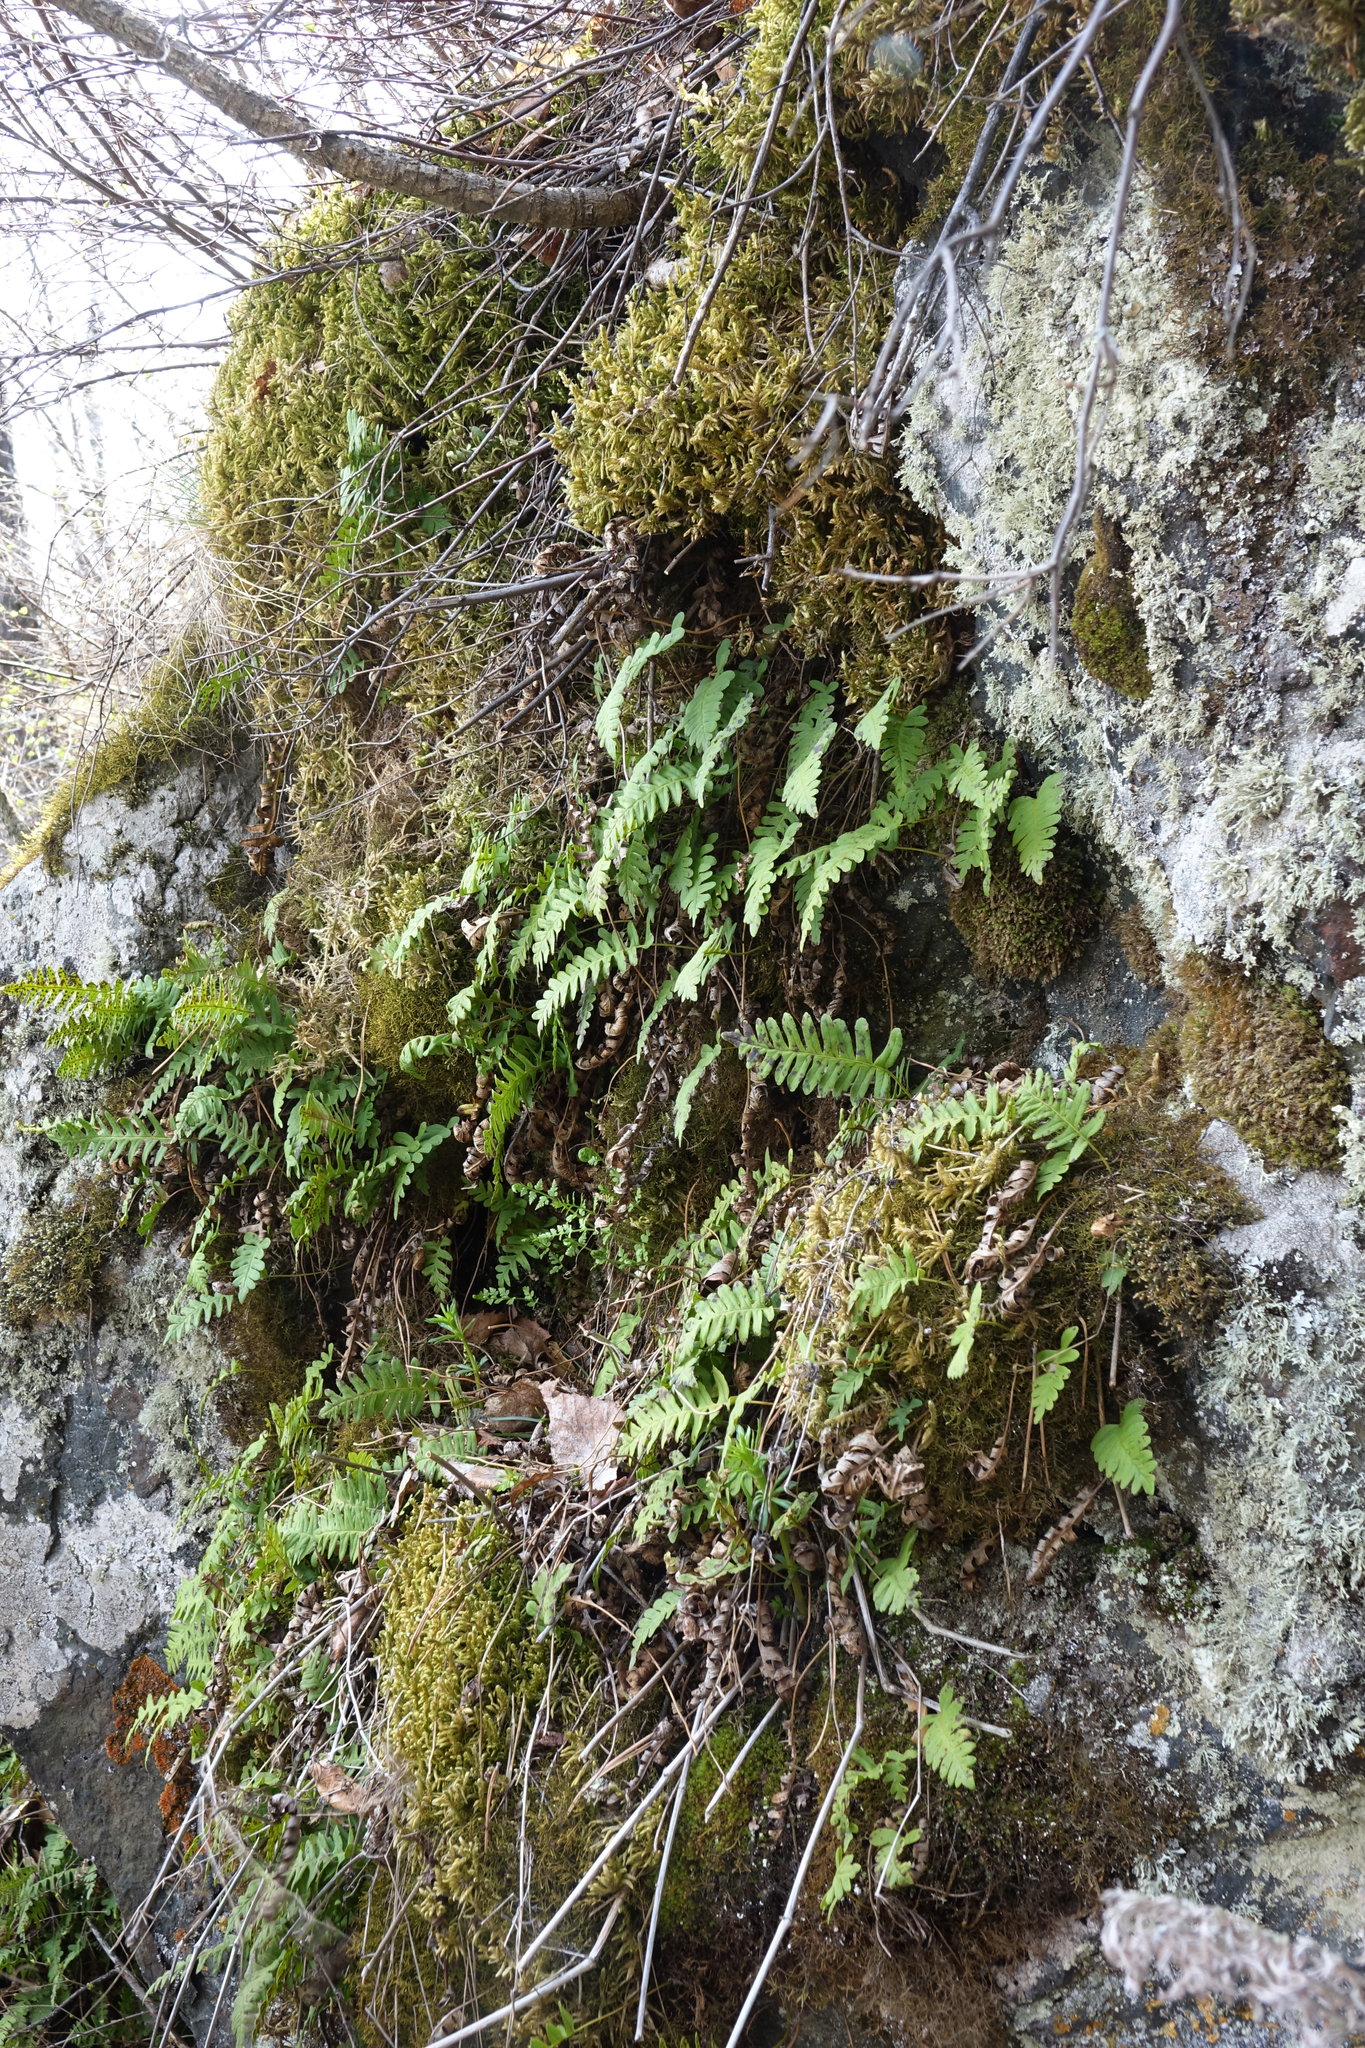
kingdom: Plantae
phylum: Tracheophyta
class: Polypodiopsida
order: Polypodiales
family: Polypodiaceae
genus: Polypodium
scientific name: Polypodium sibiricum
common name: Siberian polypody
